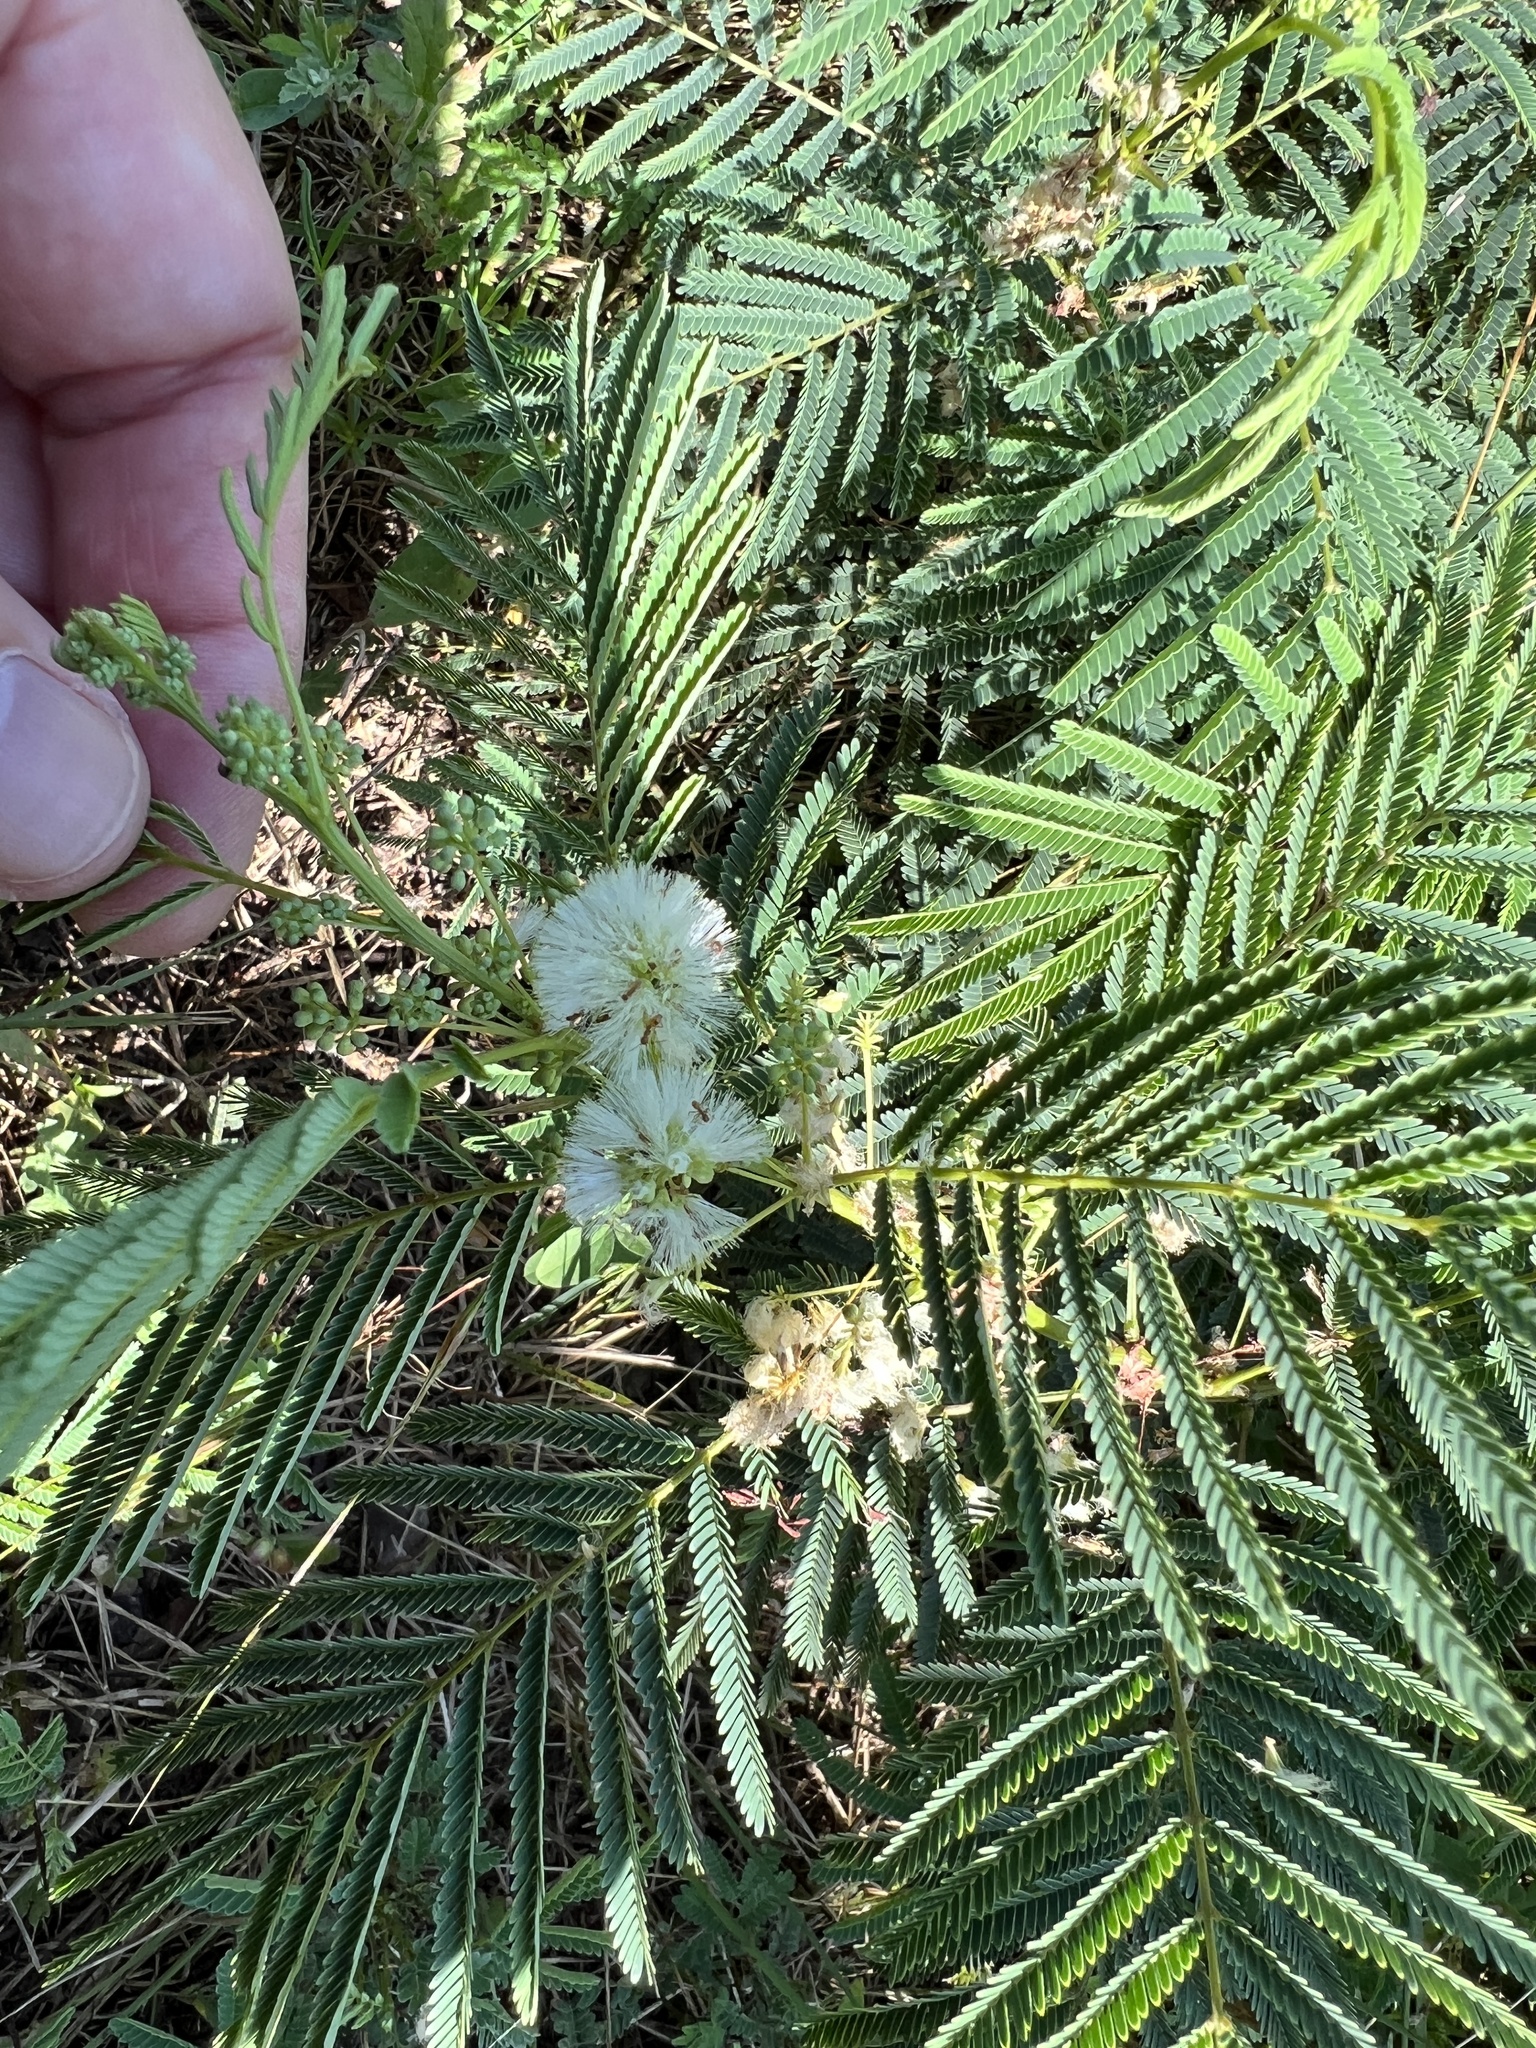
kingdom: Plantae
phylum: Tracheophyta
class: Magnoliopsida
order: Fabales
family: Fabaceae
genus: Acaciella
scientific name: Acaciella angustissima
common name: Prairie acacia
